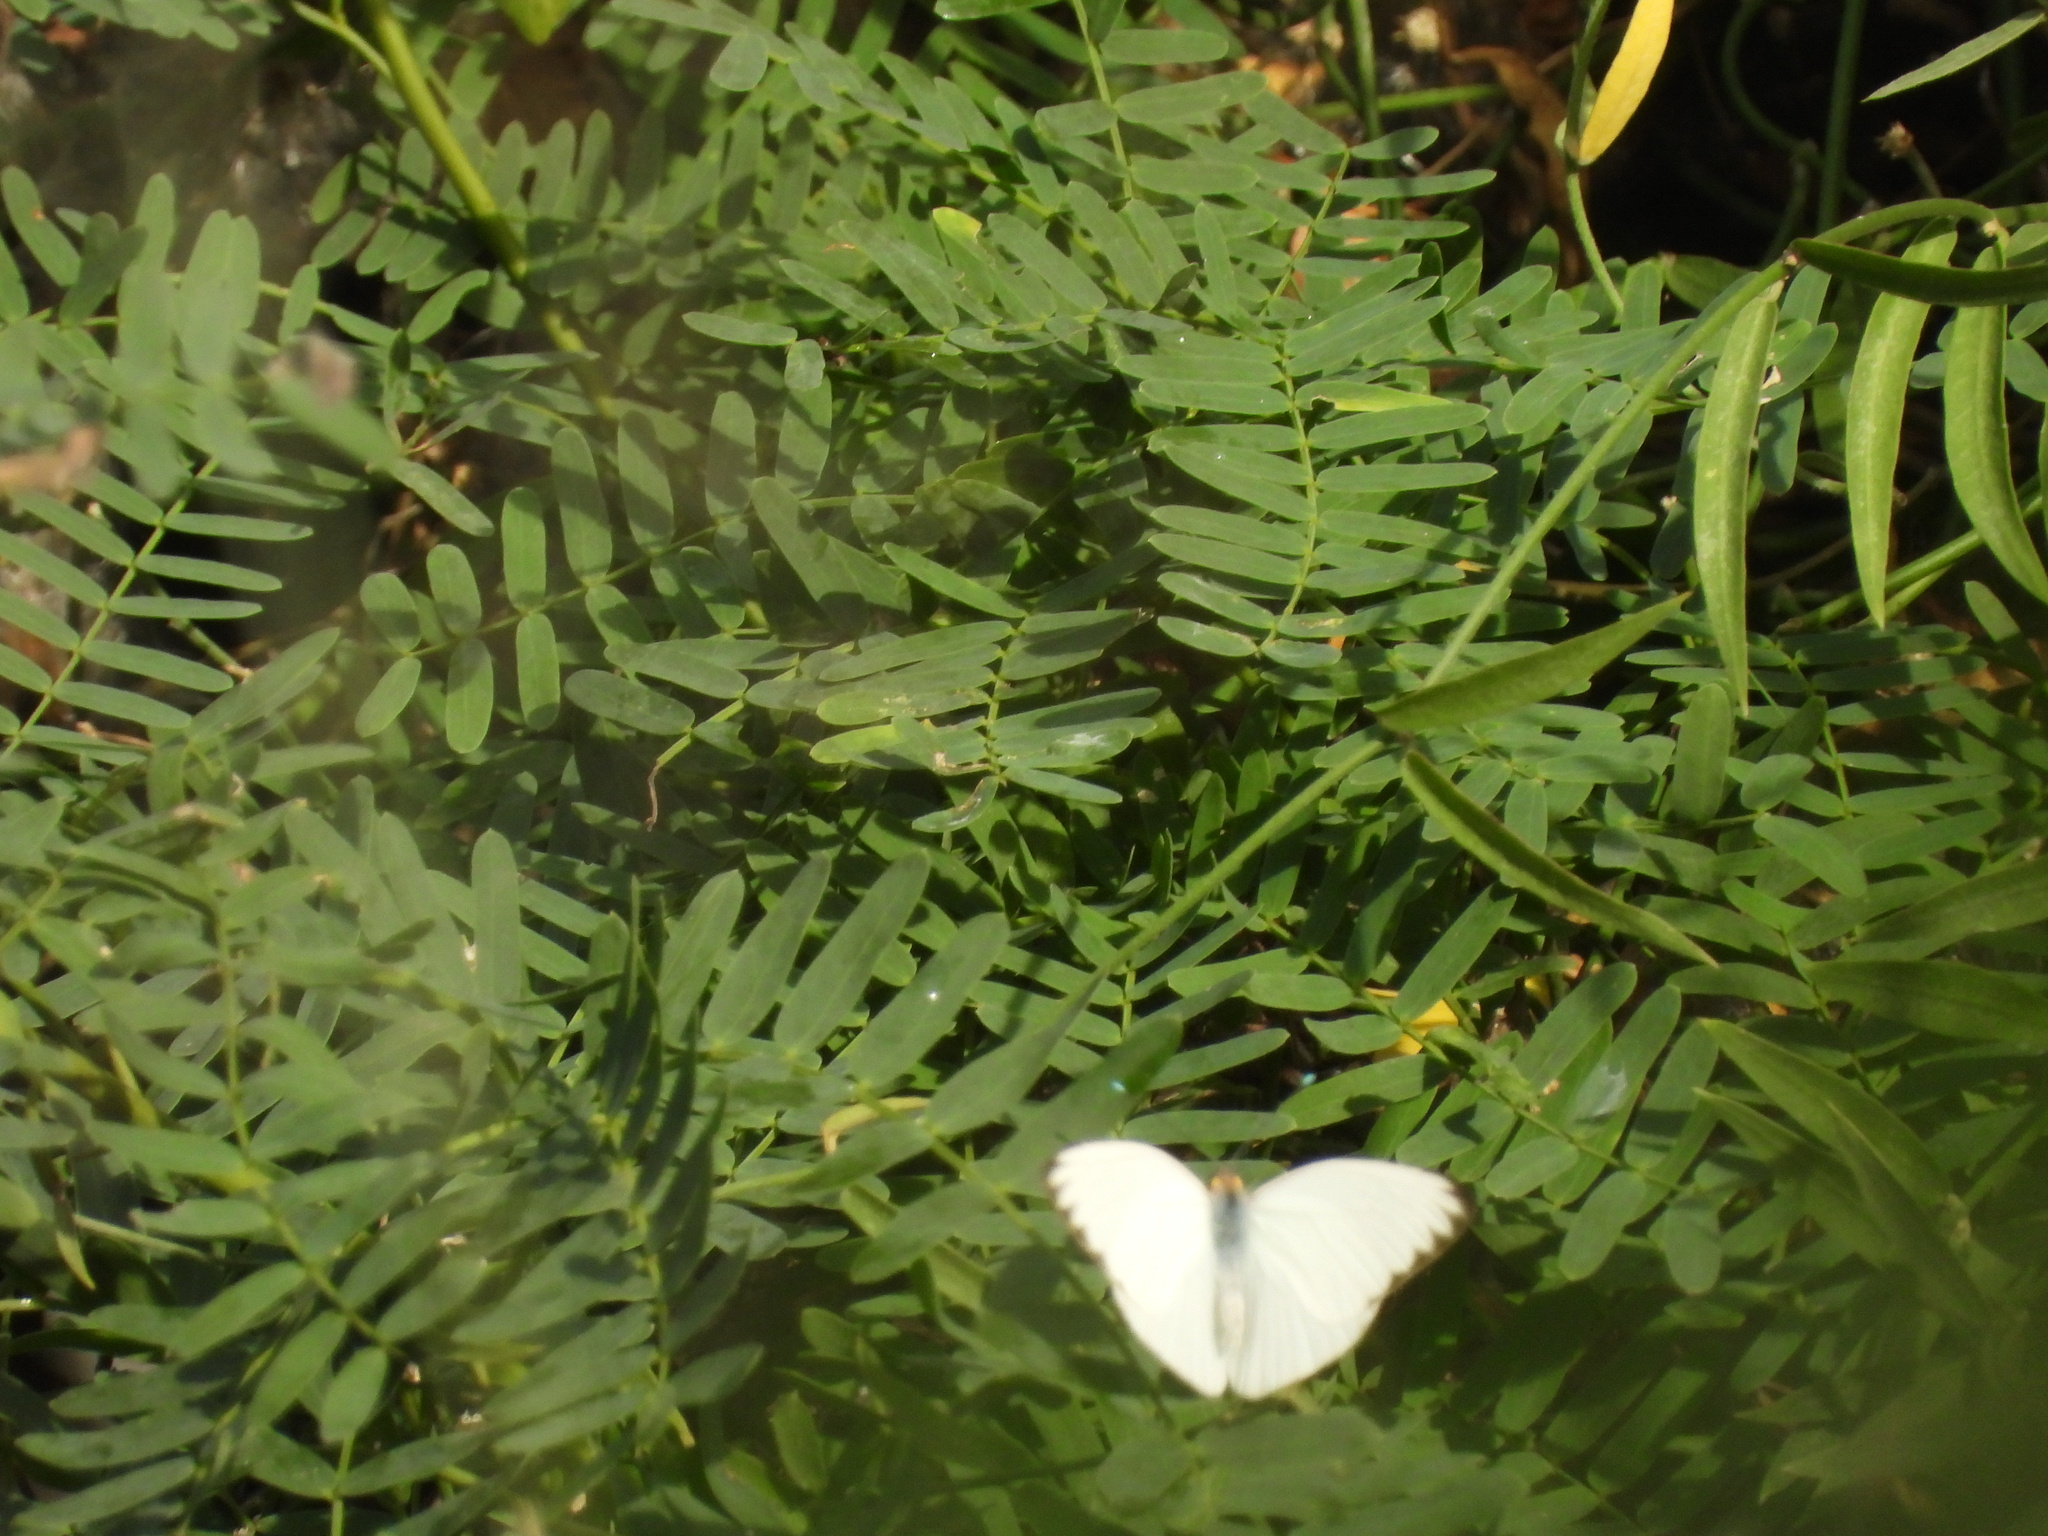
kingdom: Animalia
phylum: Arthropoda
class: Insecta
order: Lepidoptera
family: Pieridae
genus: Ascia
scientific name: Ascia monuste
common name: Great southern white
